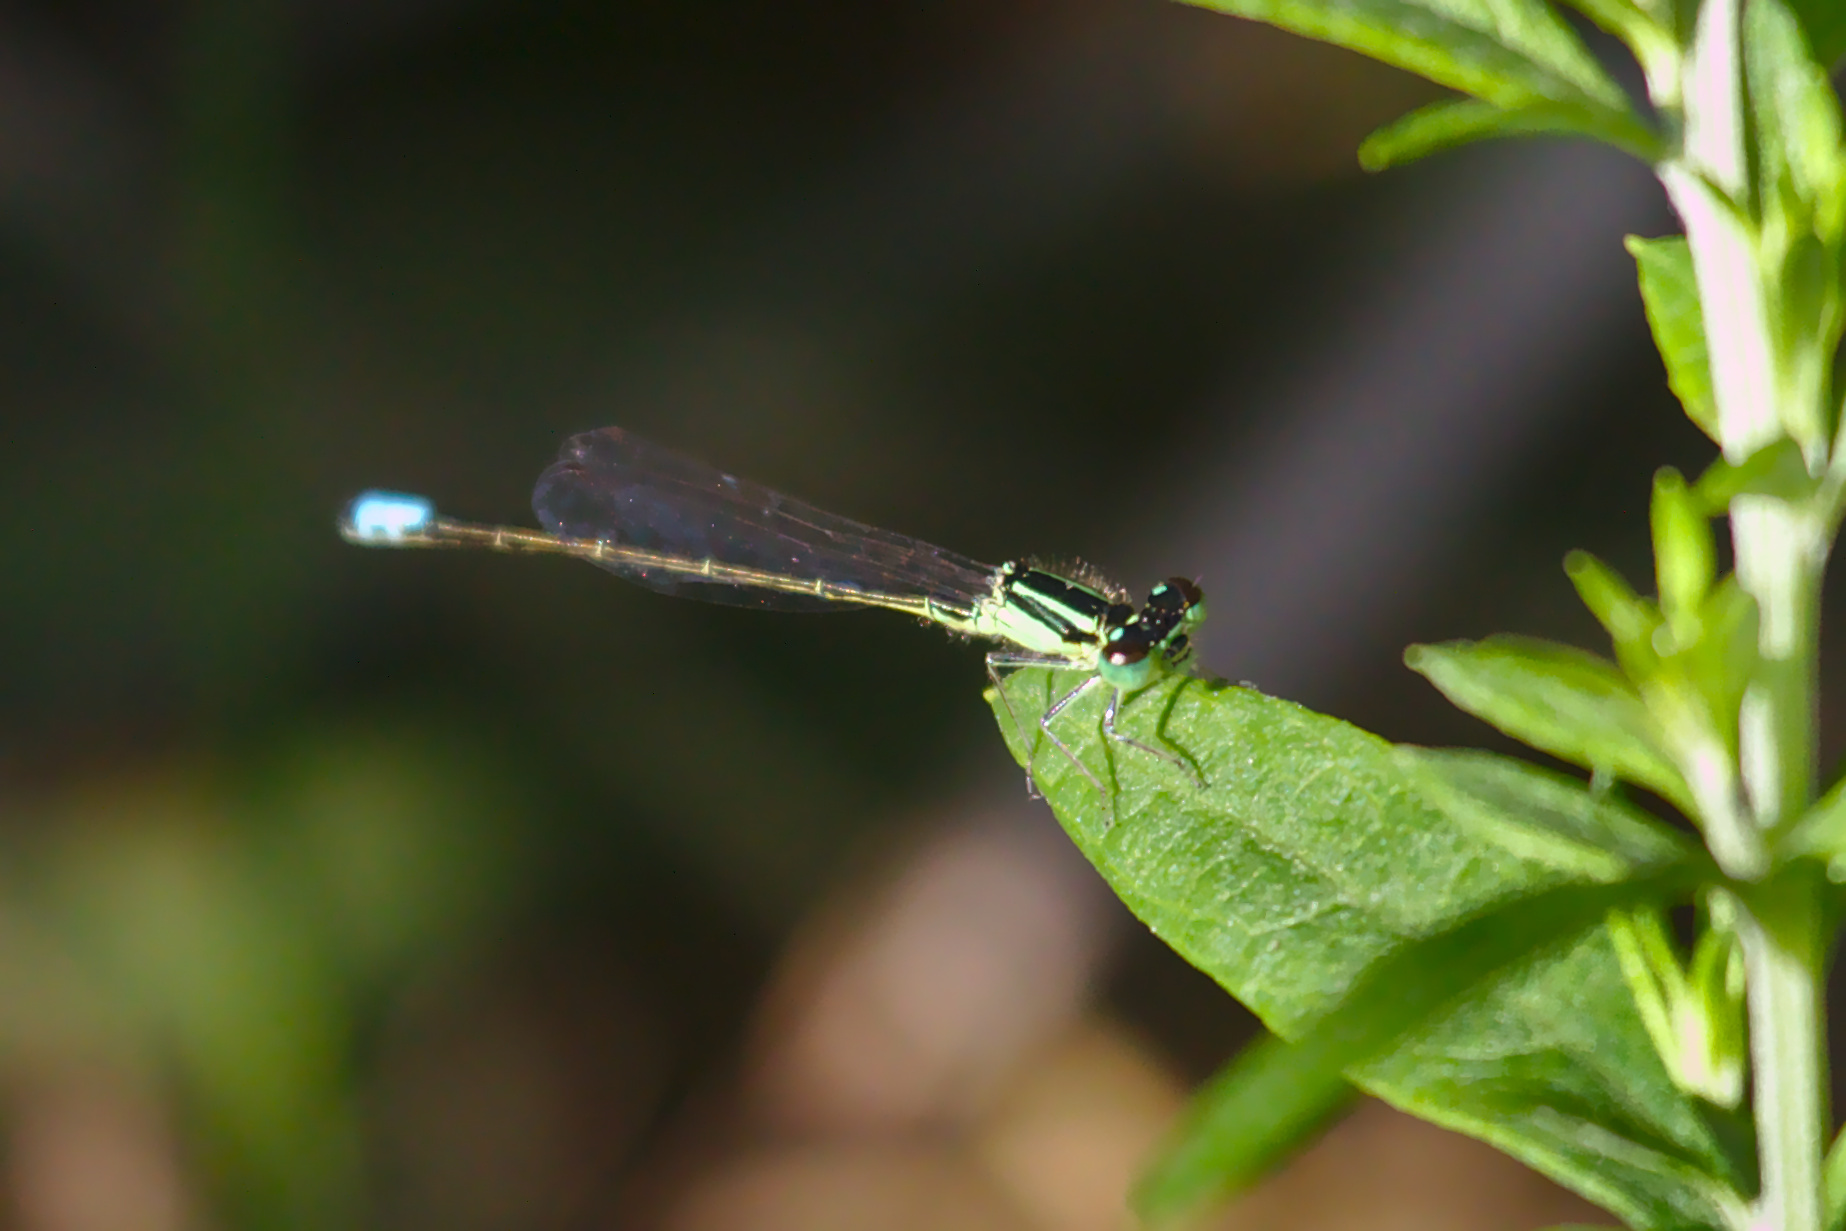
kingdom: Animalia
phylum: Arthropoda
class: Insecta
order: Odonata
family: Coenagrionidae
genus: Ischnura
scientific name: Ischnura verticalis
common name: Eastern forktail
